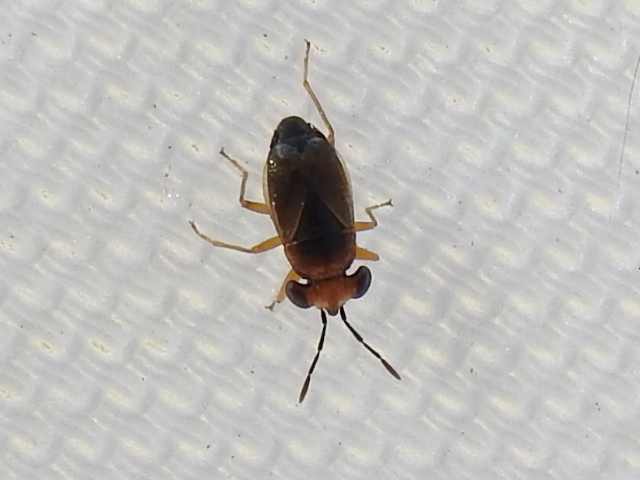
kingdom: Animalia
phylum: Arthropoda
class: Insecta
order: Hemiptera
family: Geocoridae
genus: Isthmocoris
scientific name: Isthmocoris imperialis
